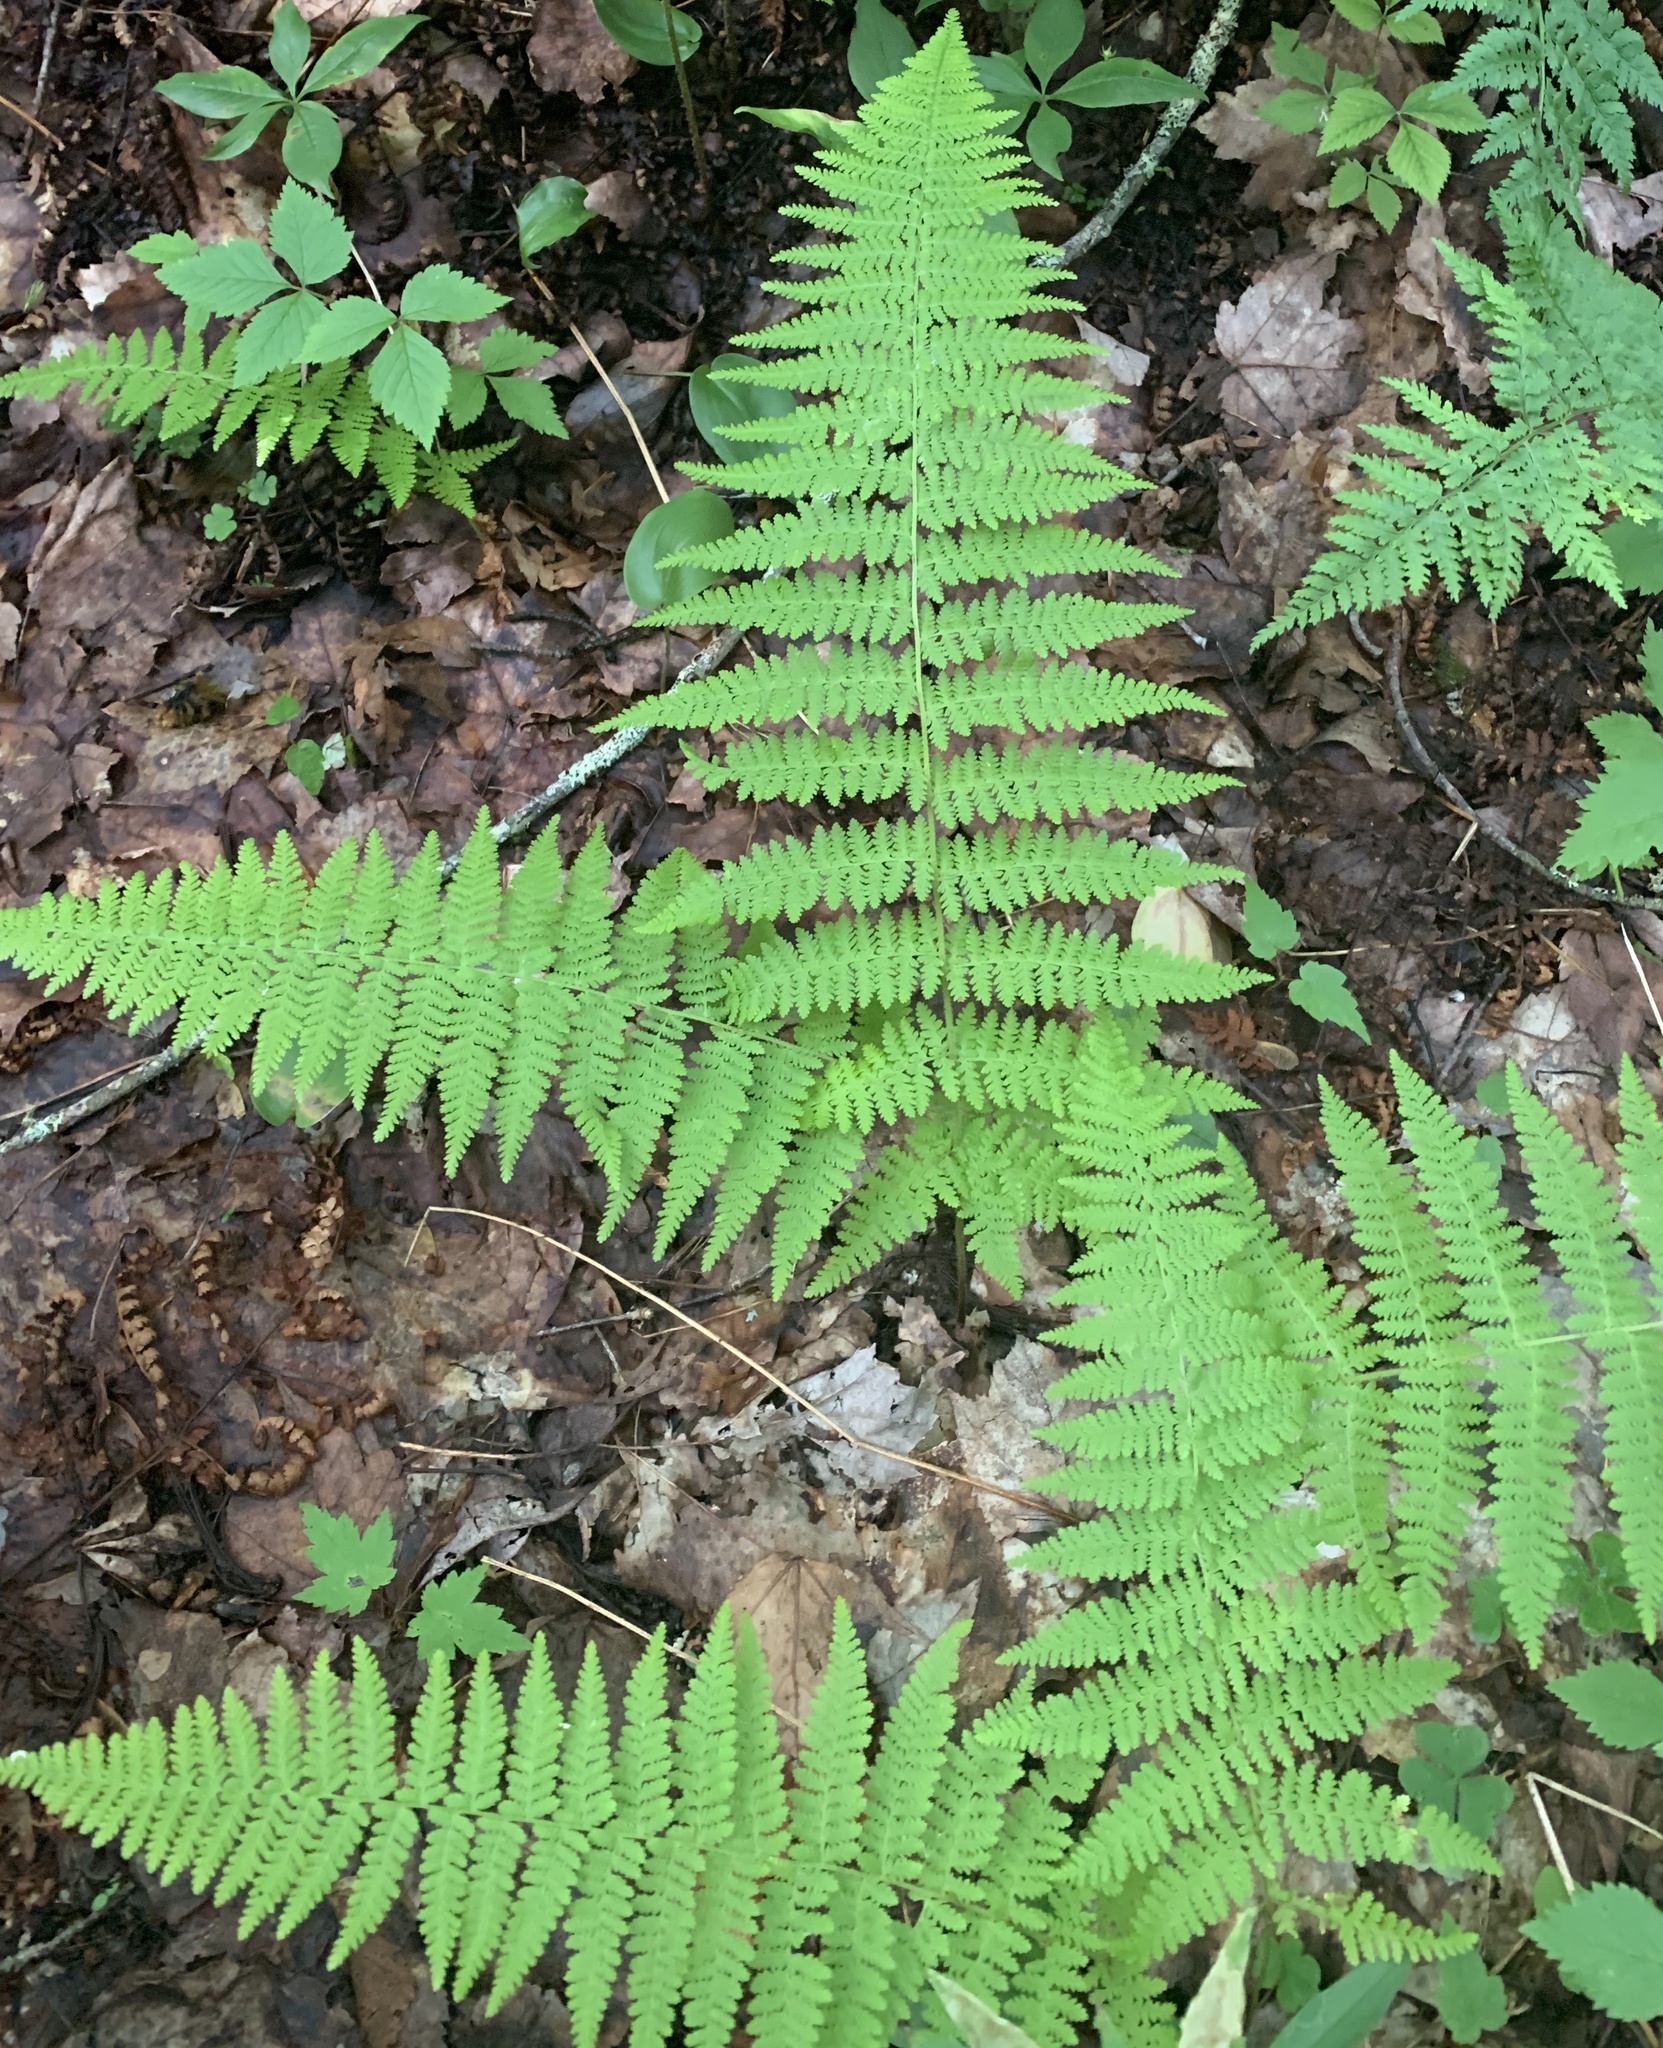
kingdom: Plantae
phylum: Tracheophyta
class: Polypodiopsida
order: Polypodiales
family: Dennstaedtiaceae
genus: Sitobolium
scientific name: Sitobolium punctilobum
